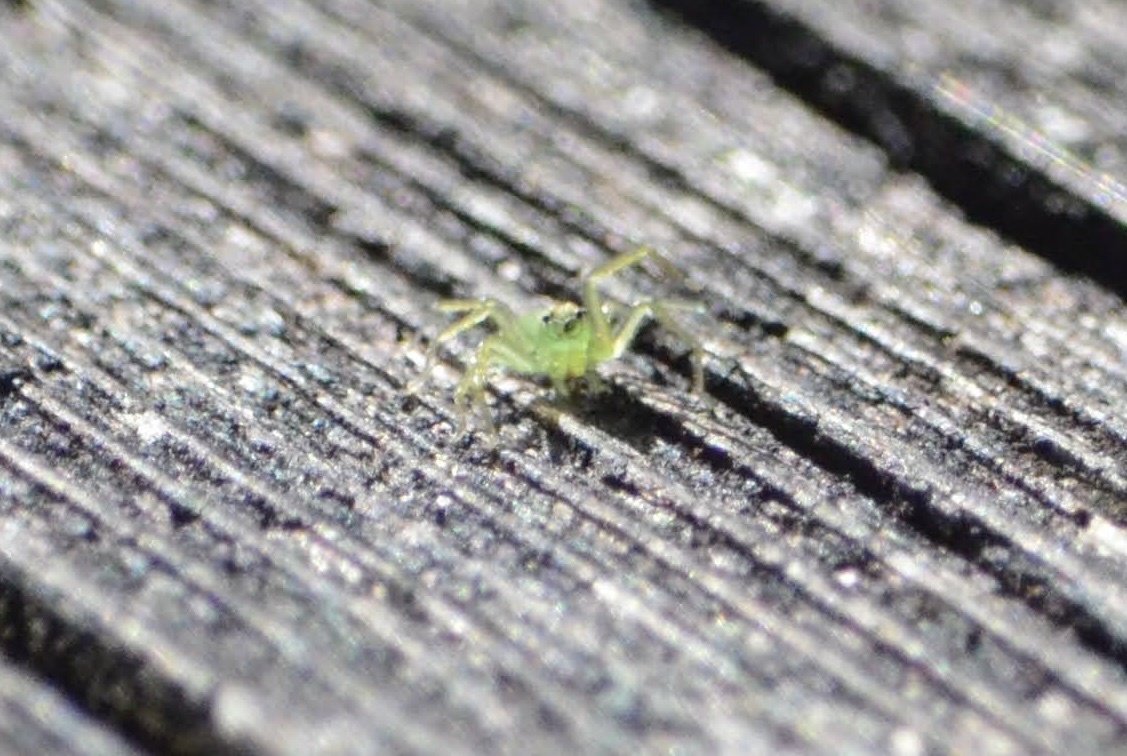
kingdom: Animalia
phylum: Arthropoda
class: Arachnida
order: Araneae
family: Salticidae
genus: Lyssomanes
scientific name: Lyssomanes viridis
